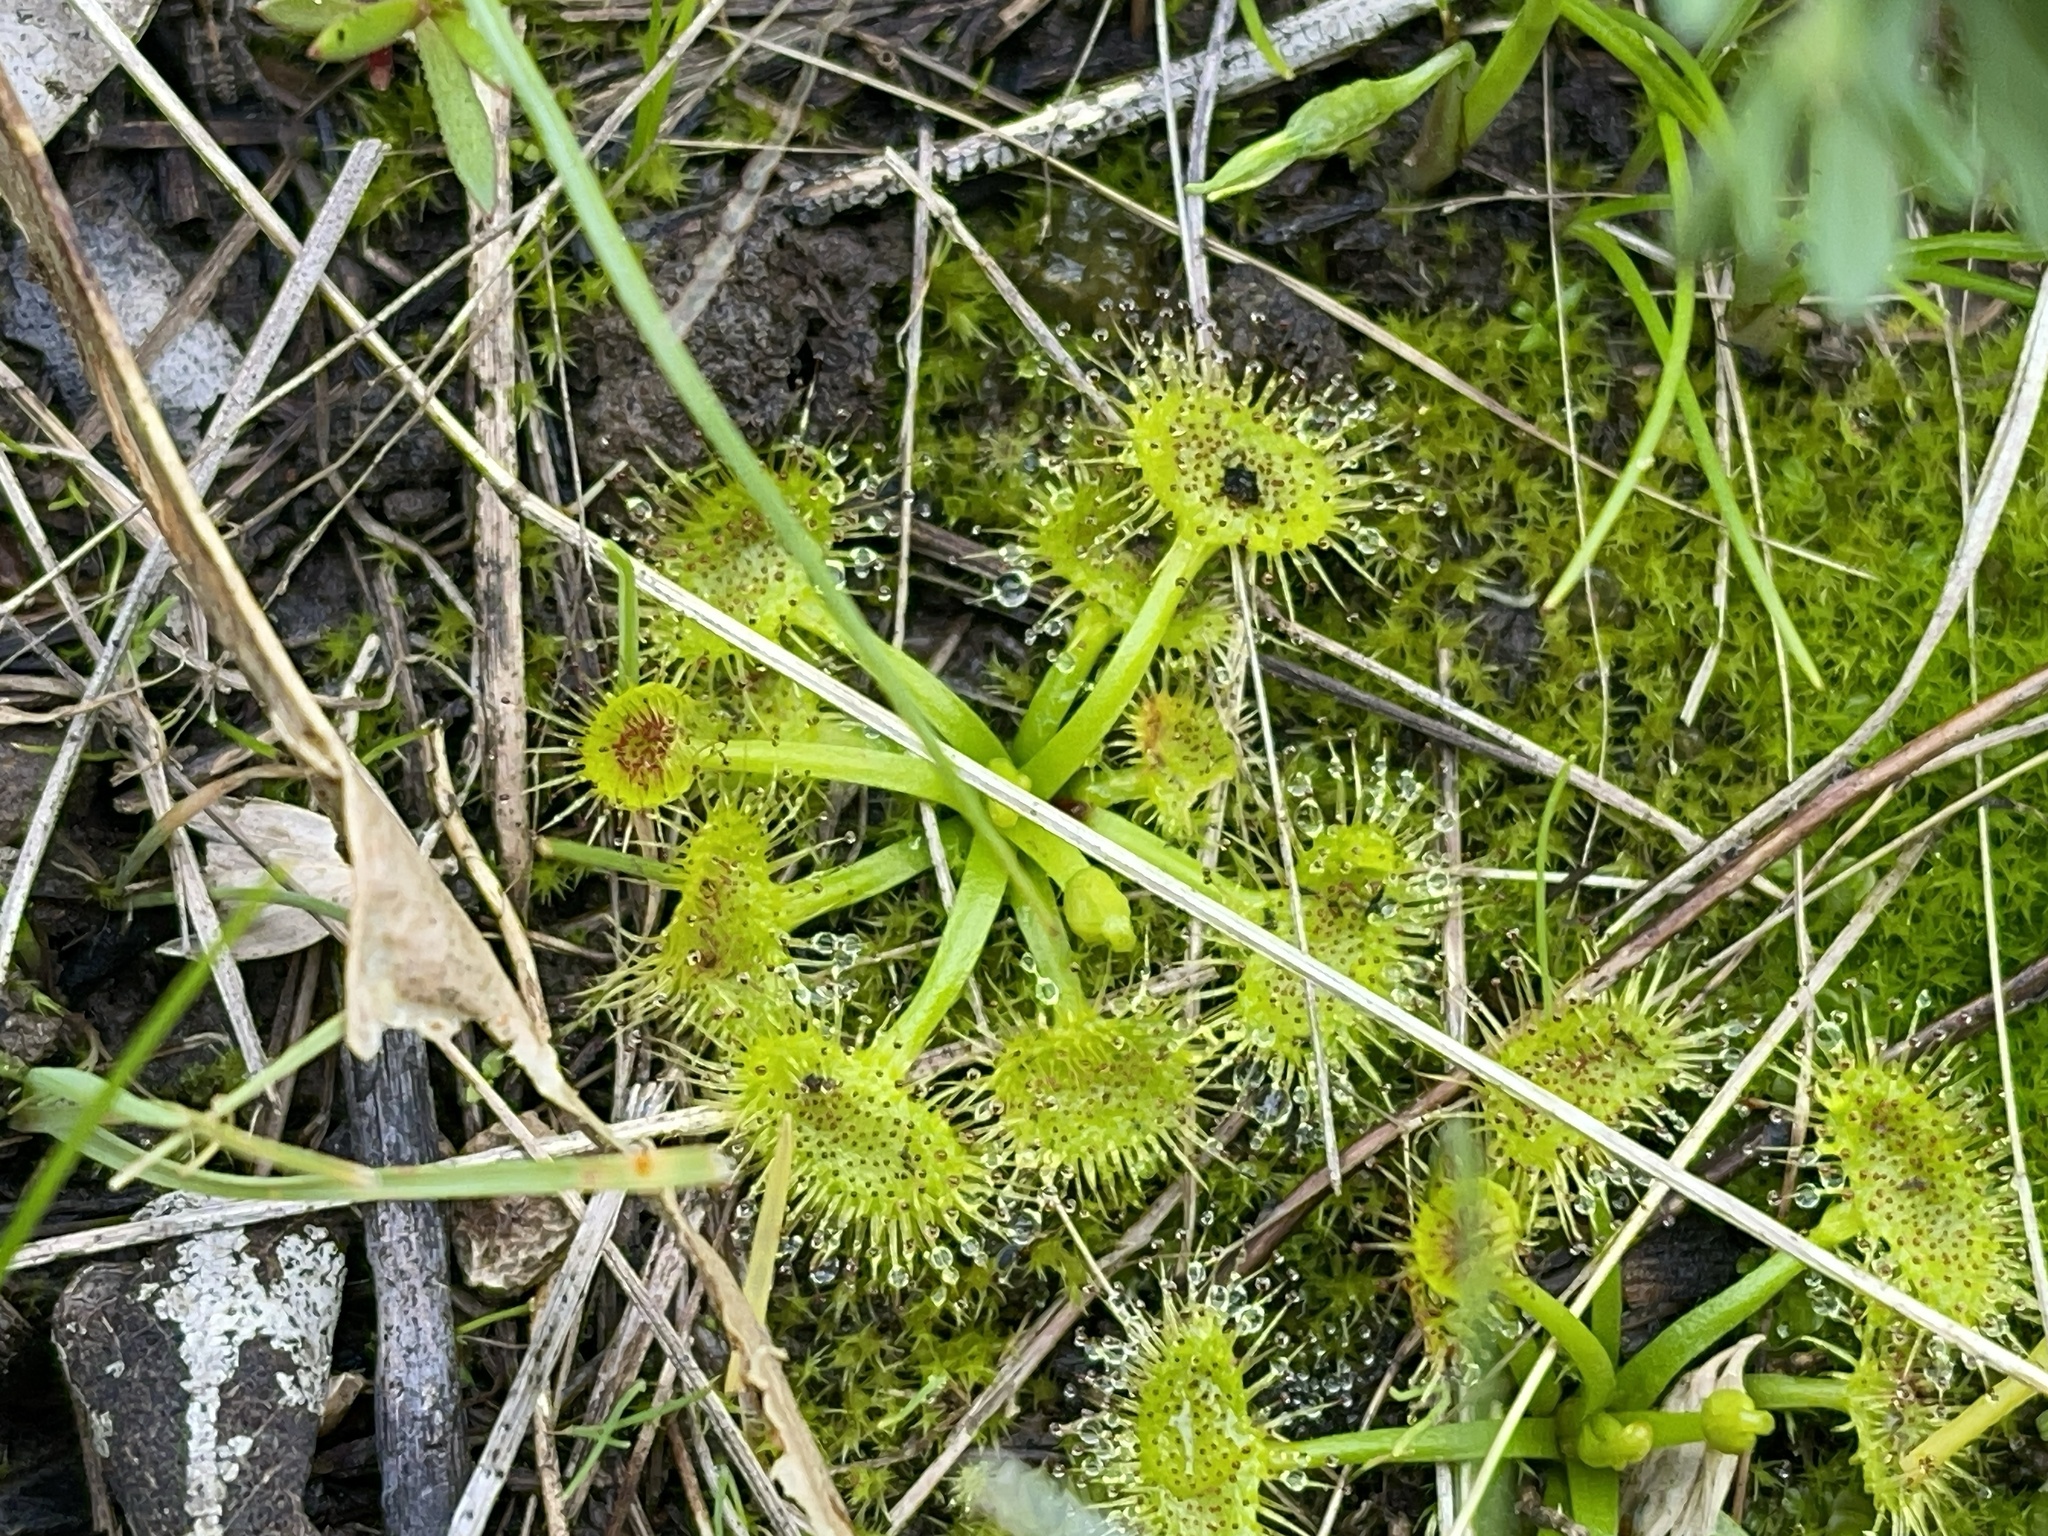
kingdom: Plantae
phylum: Tracheophyta
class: Magnoliopsida
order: Caryophyllales
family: Droseraceae
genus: Drosera
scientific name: Drosera hookeri
